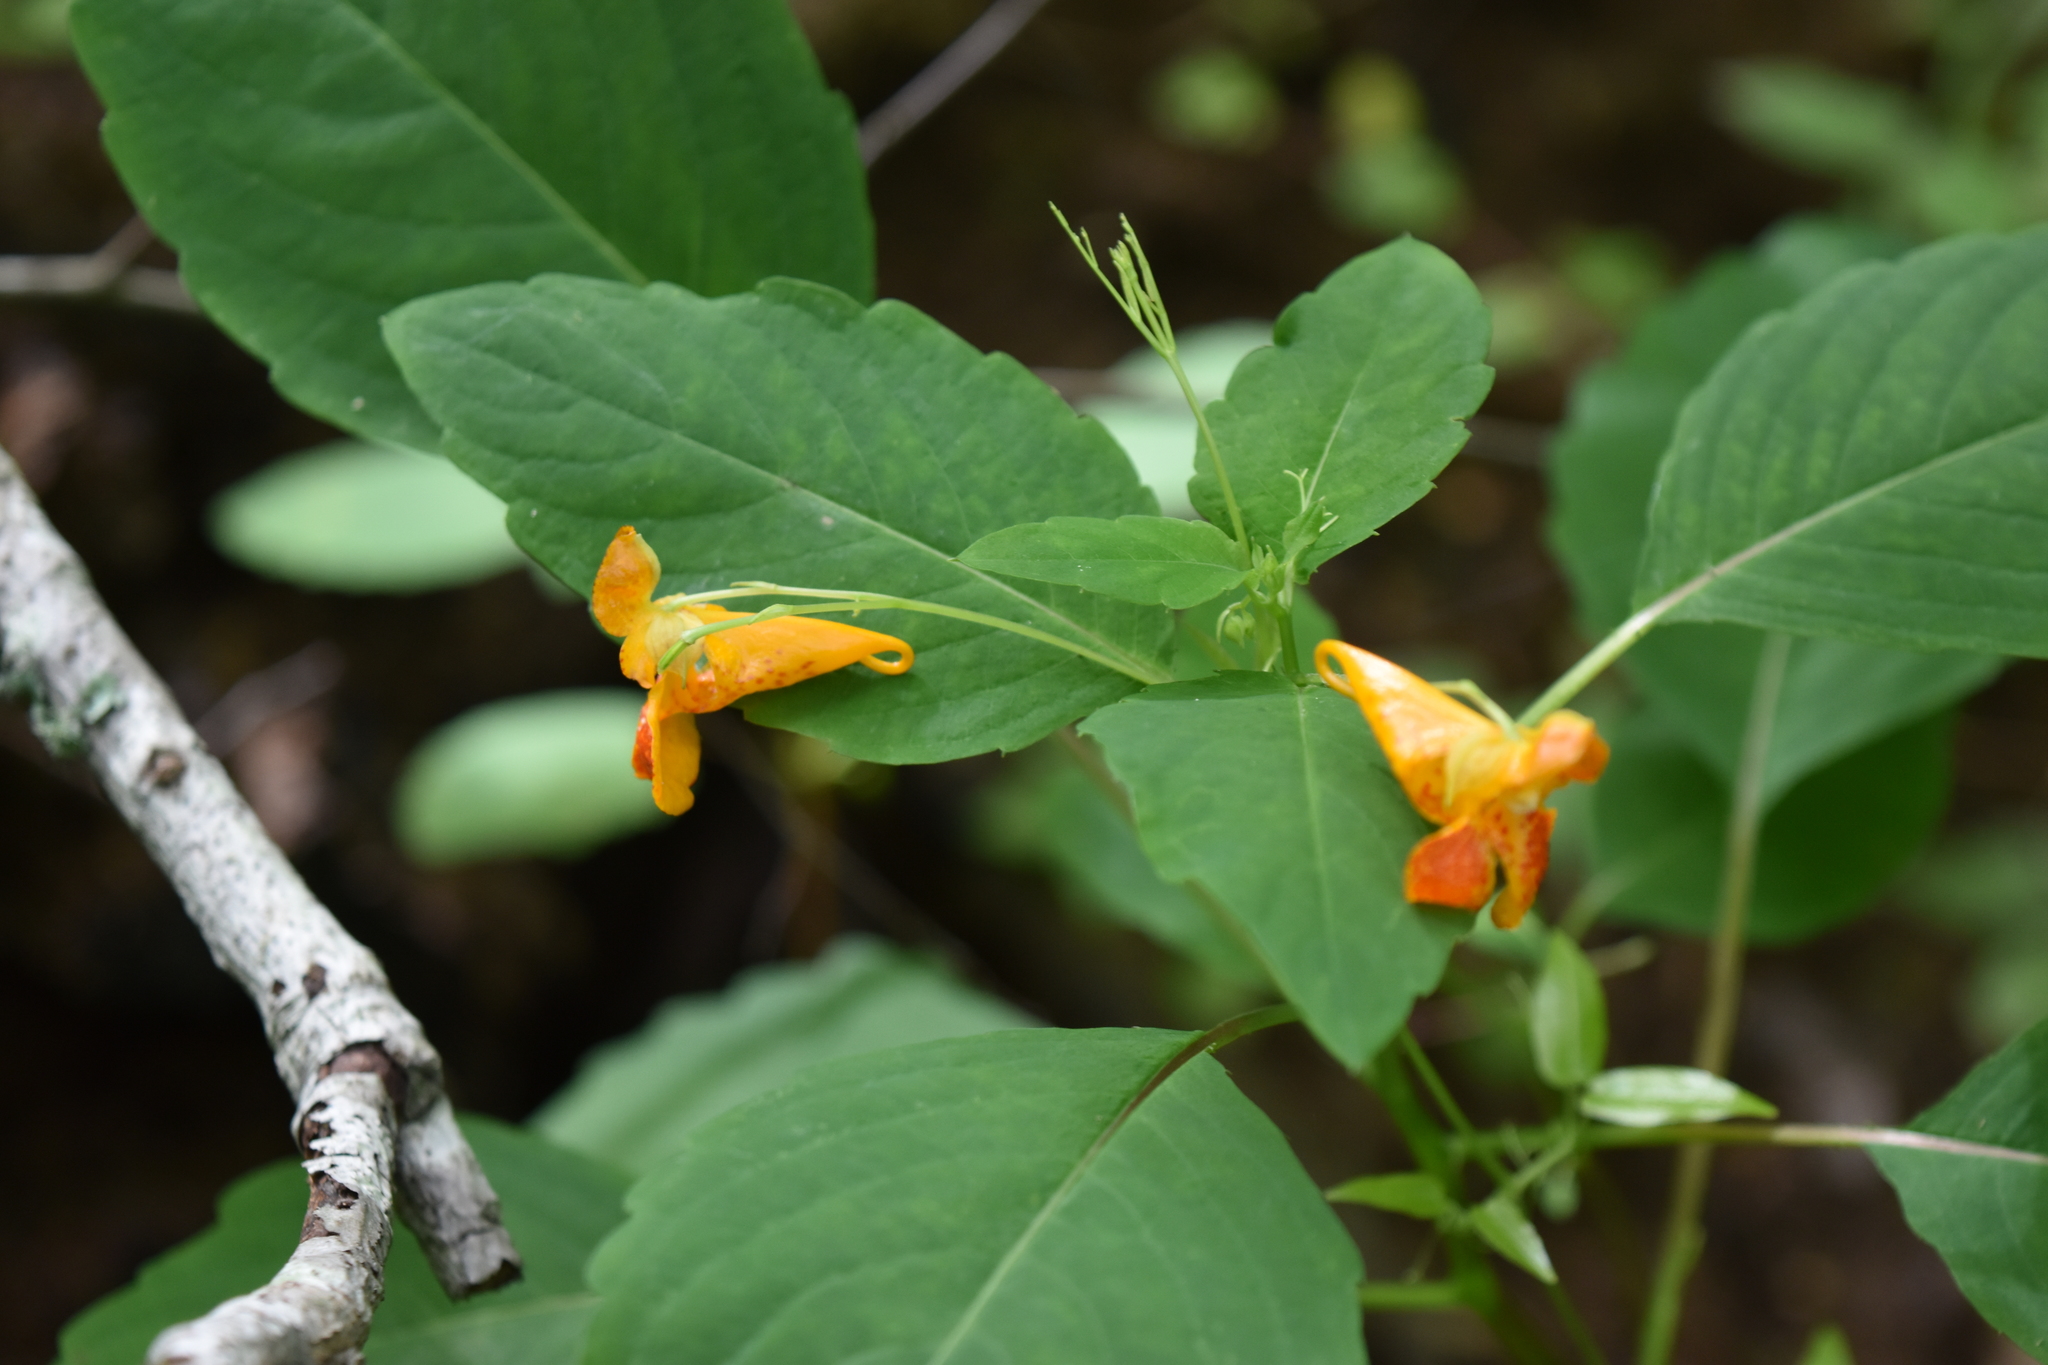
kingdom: Plantae
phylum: Tracheophyta
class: Magnoliopsida
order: Ericales
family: Balsaminaceae
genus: Impatiens
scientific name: Impatiens capensis
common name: Orange balsam
